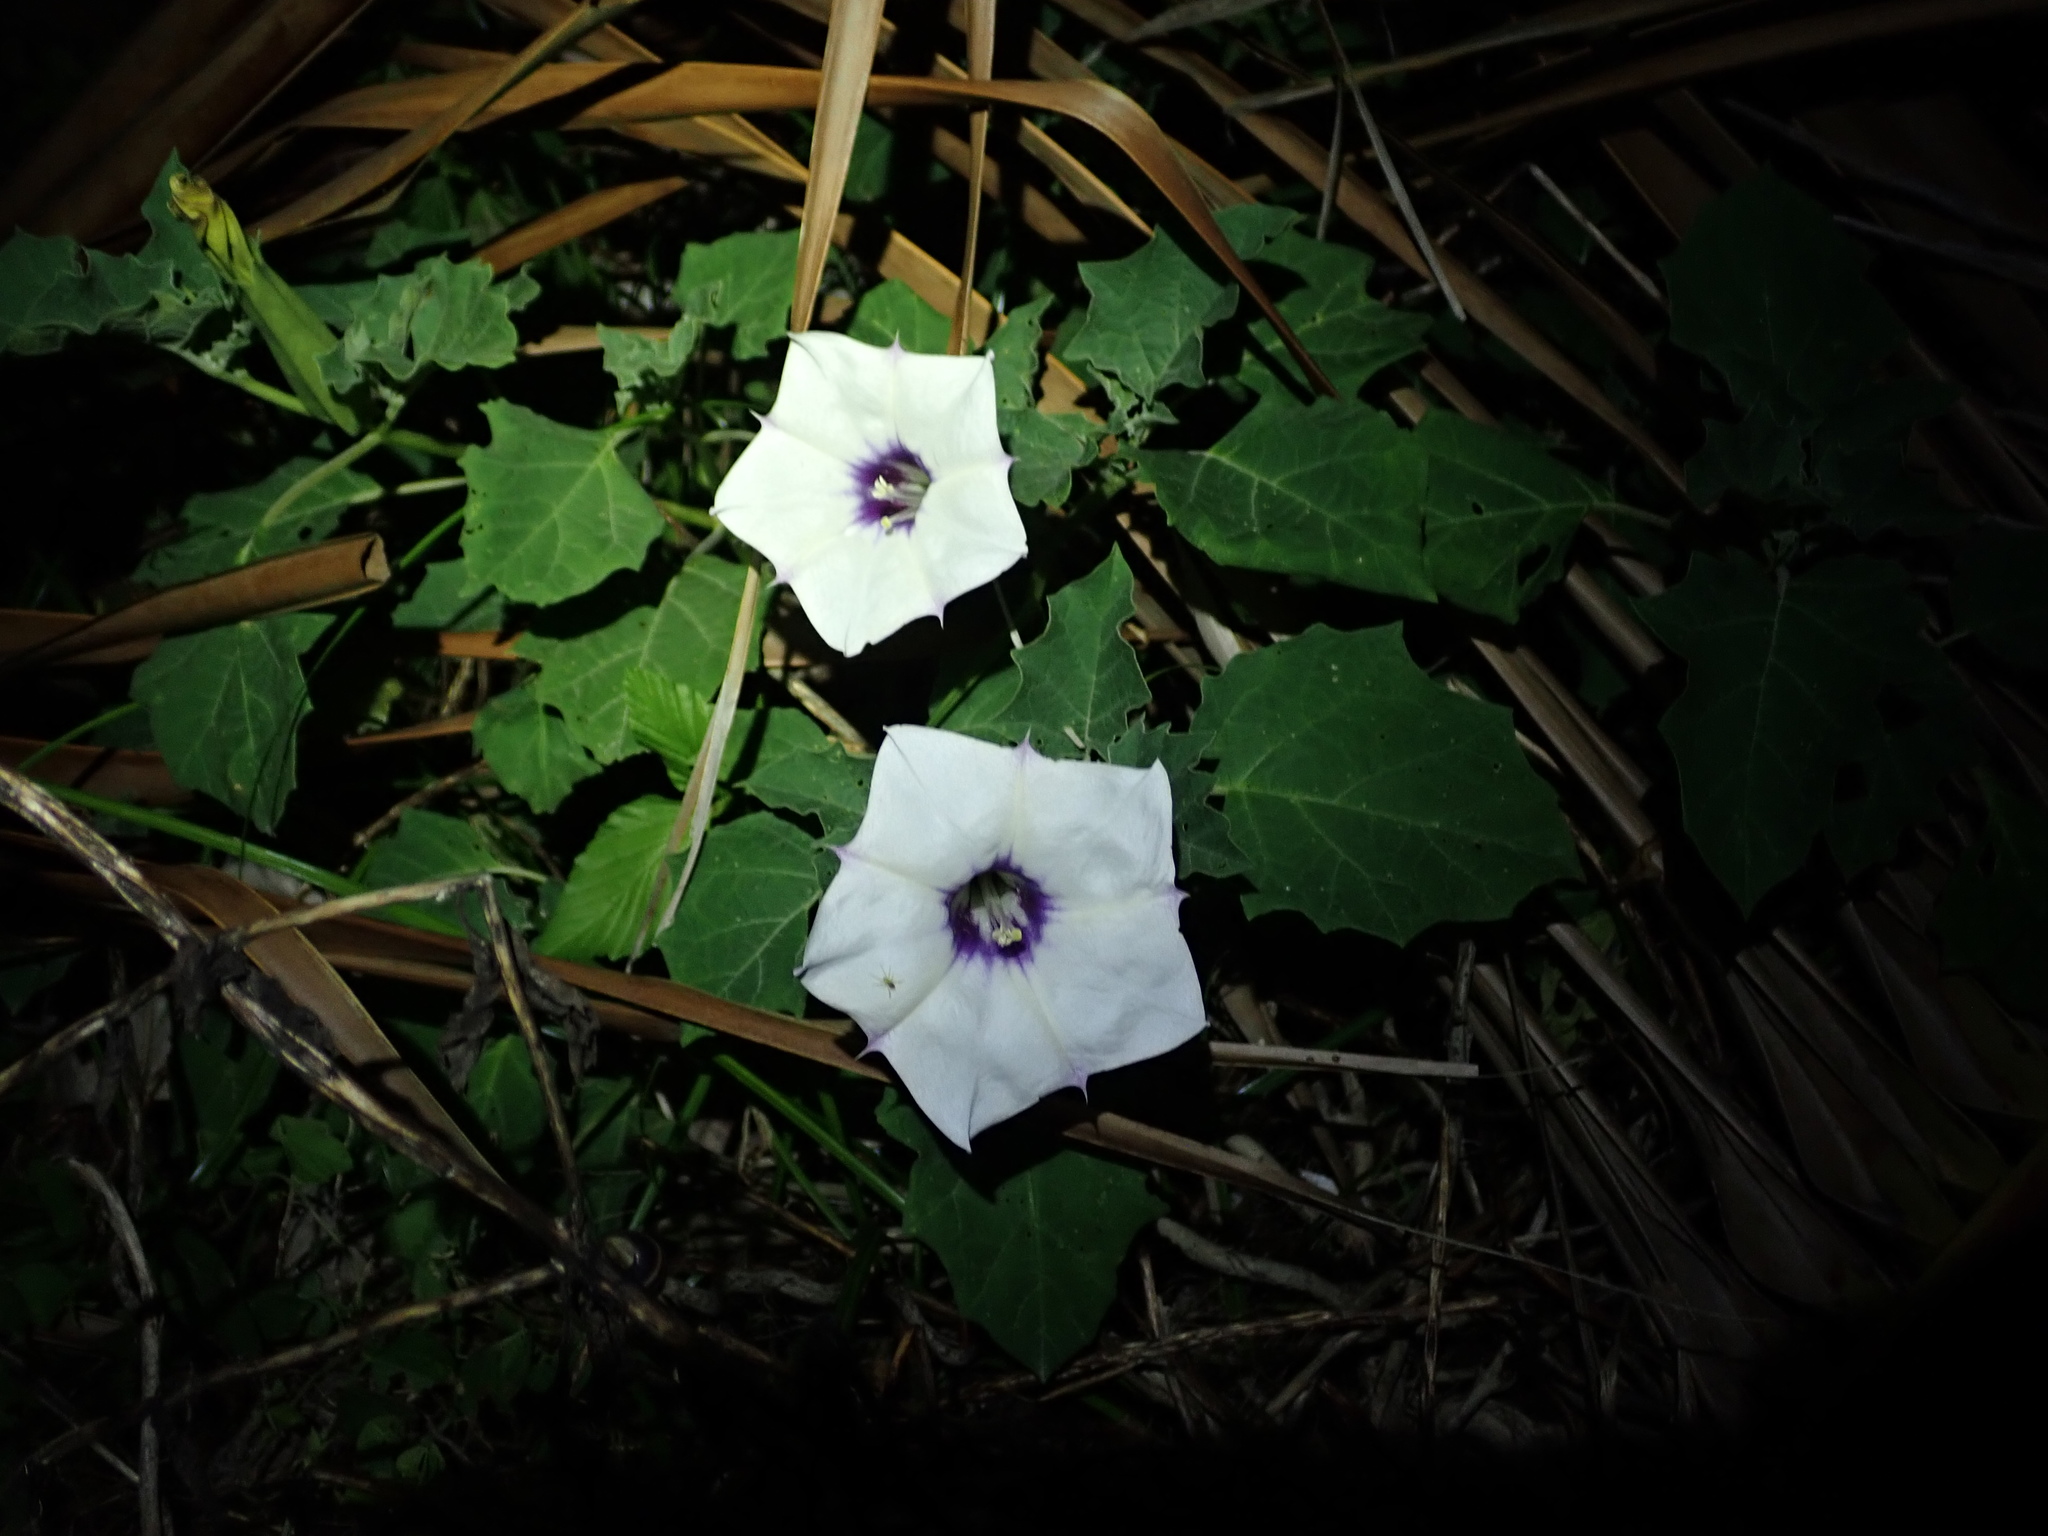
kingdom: Plantae
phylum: Tracheophyta
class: Magnoliopsida
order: Solanales
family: Solanaceae
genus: Datura
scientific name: Datura discolor
